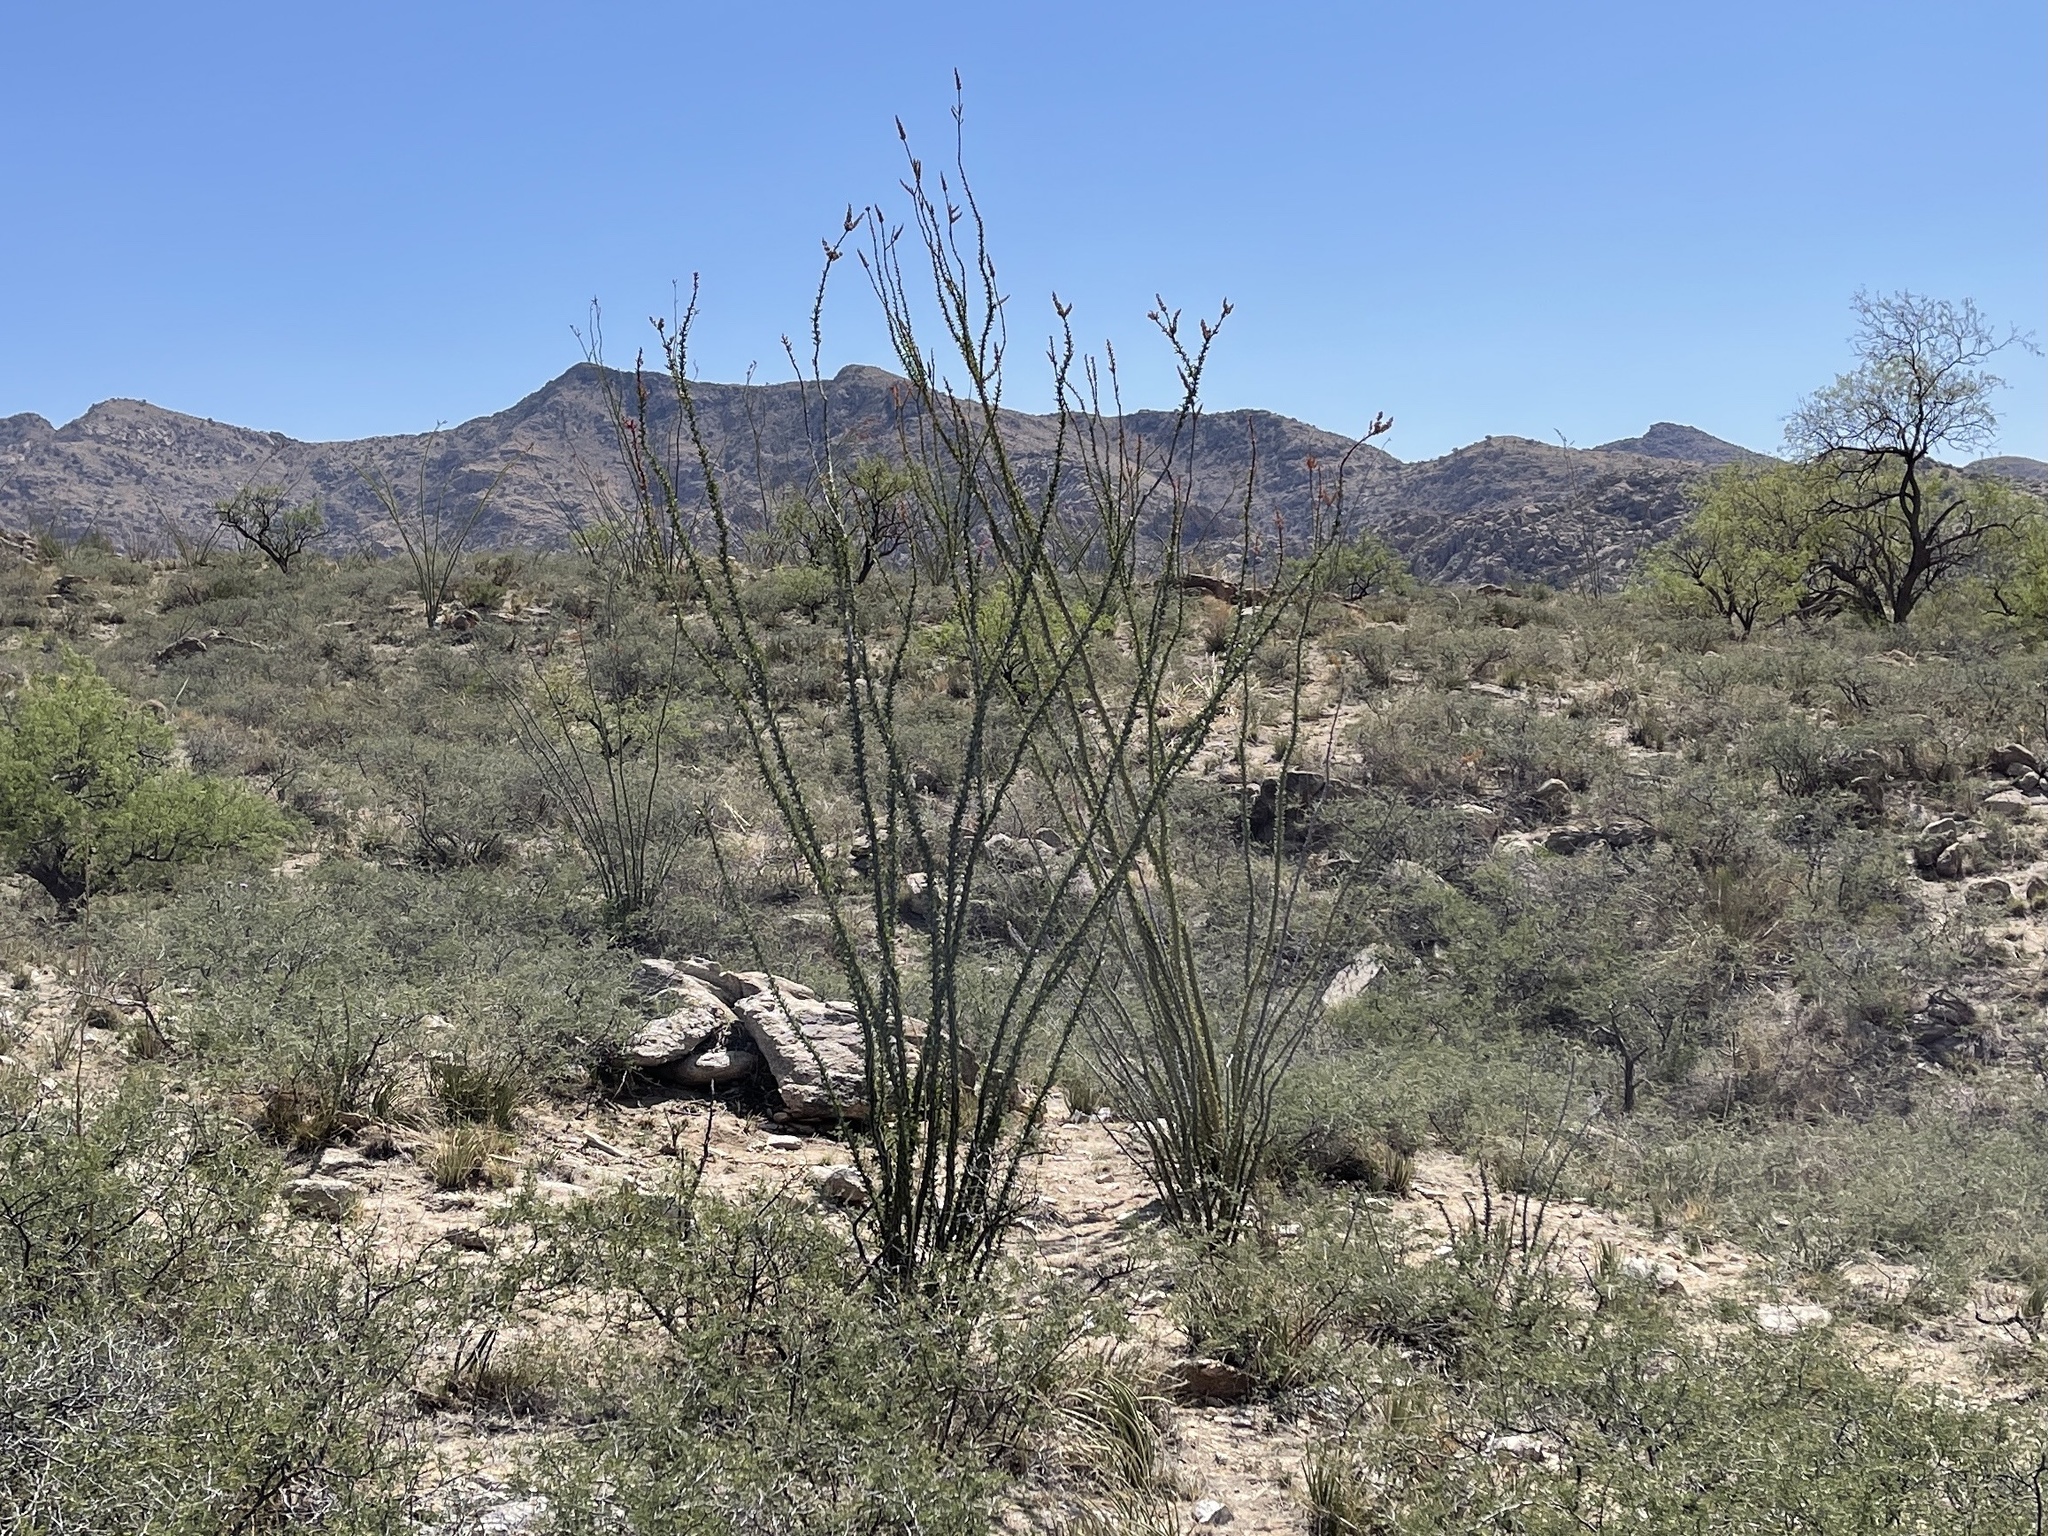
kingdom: Plantae
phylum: Tracheophyta
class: Magnoliopsida
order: Ericales
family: Fouquieriaceae
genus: Fouquieria
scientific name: Fouquieria splendens
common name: Vine-cactus
